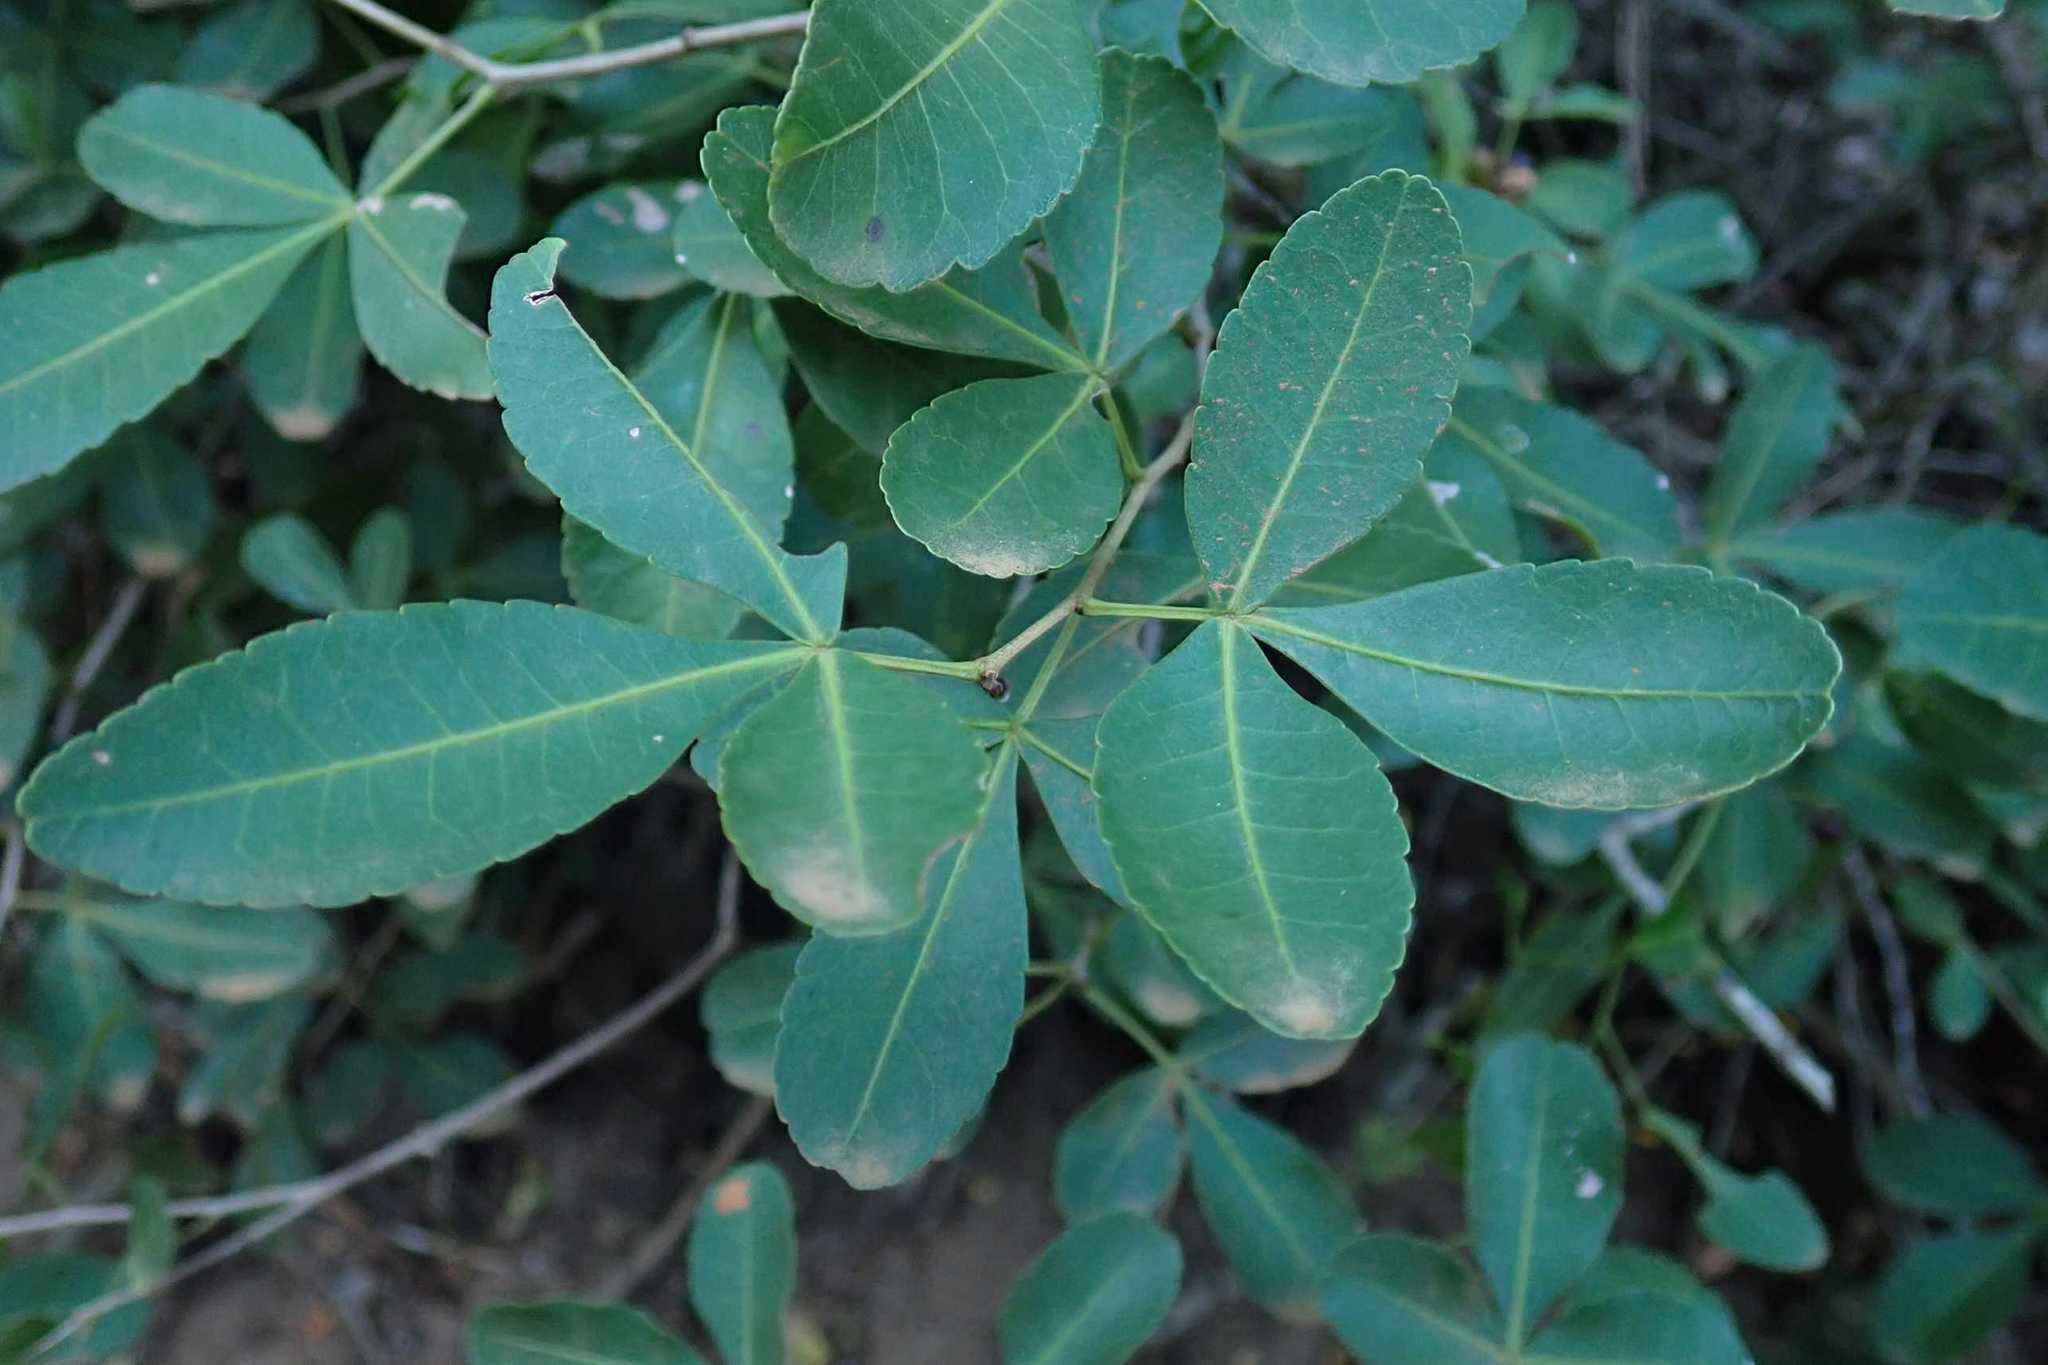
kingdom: Plantae
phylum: Tracheophyta
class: Magnoliopsida
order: Sapindales
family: Anacardiaceae
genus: Searsia
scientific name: Searsia natalensis
